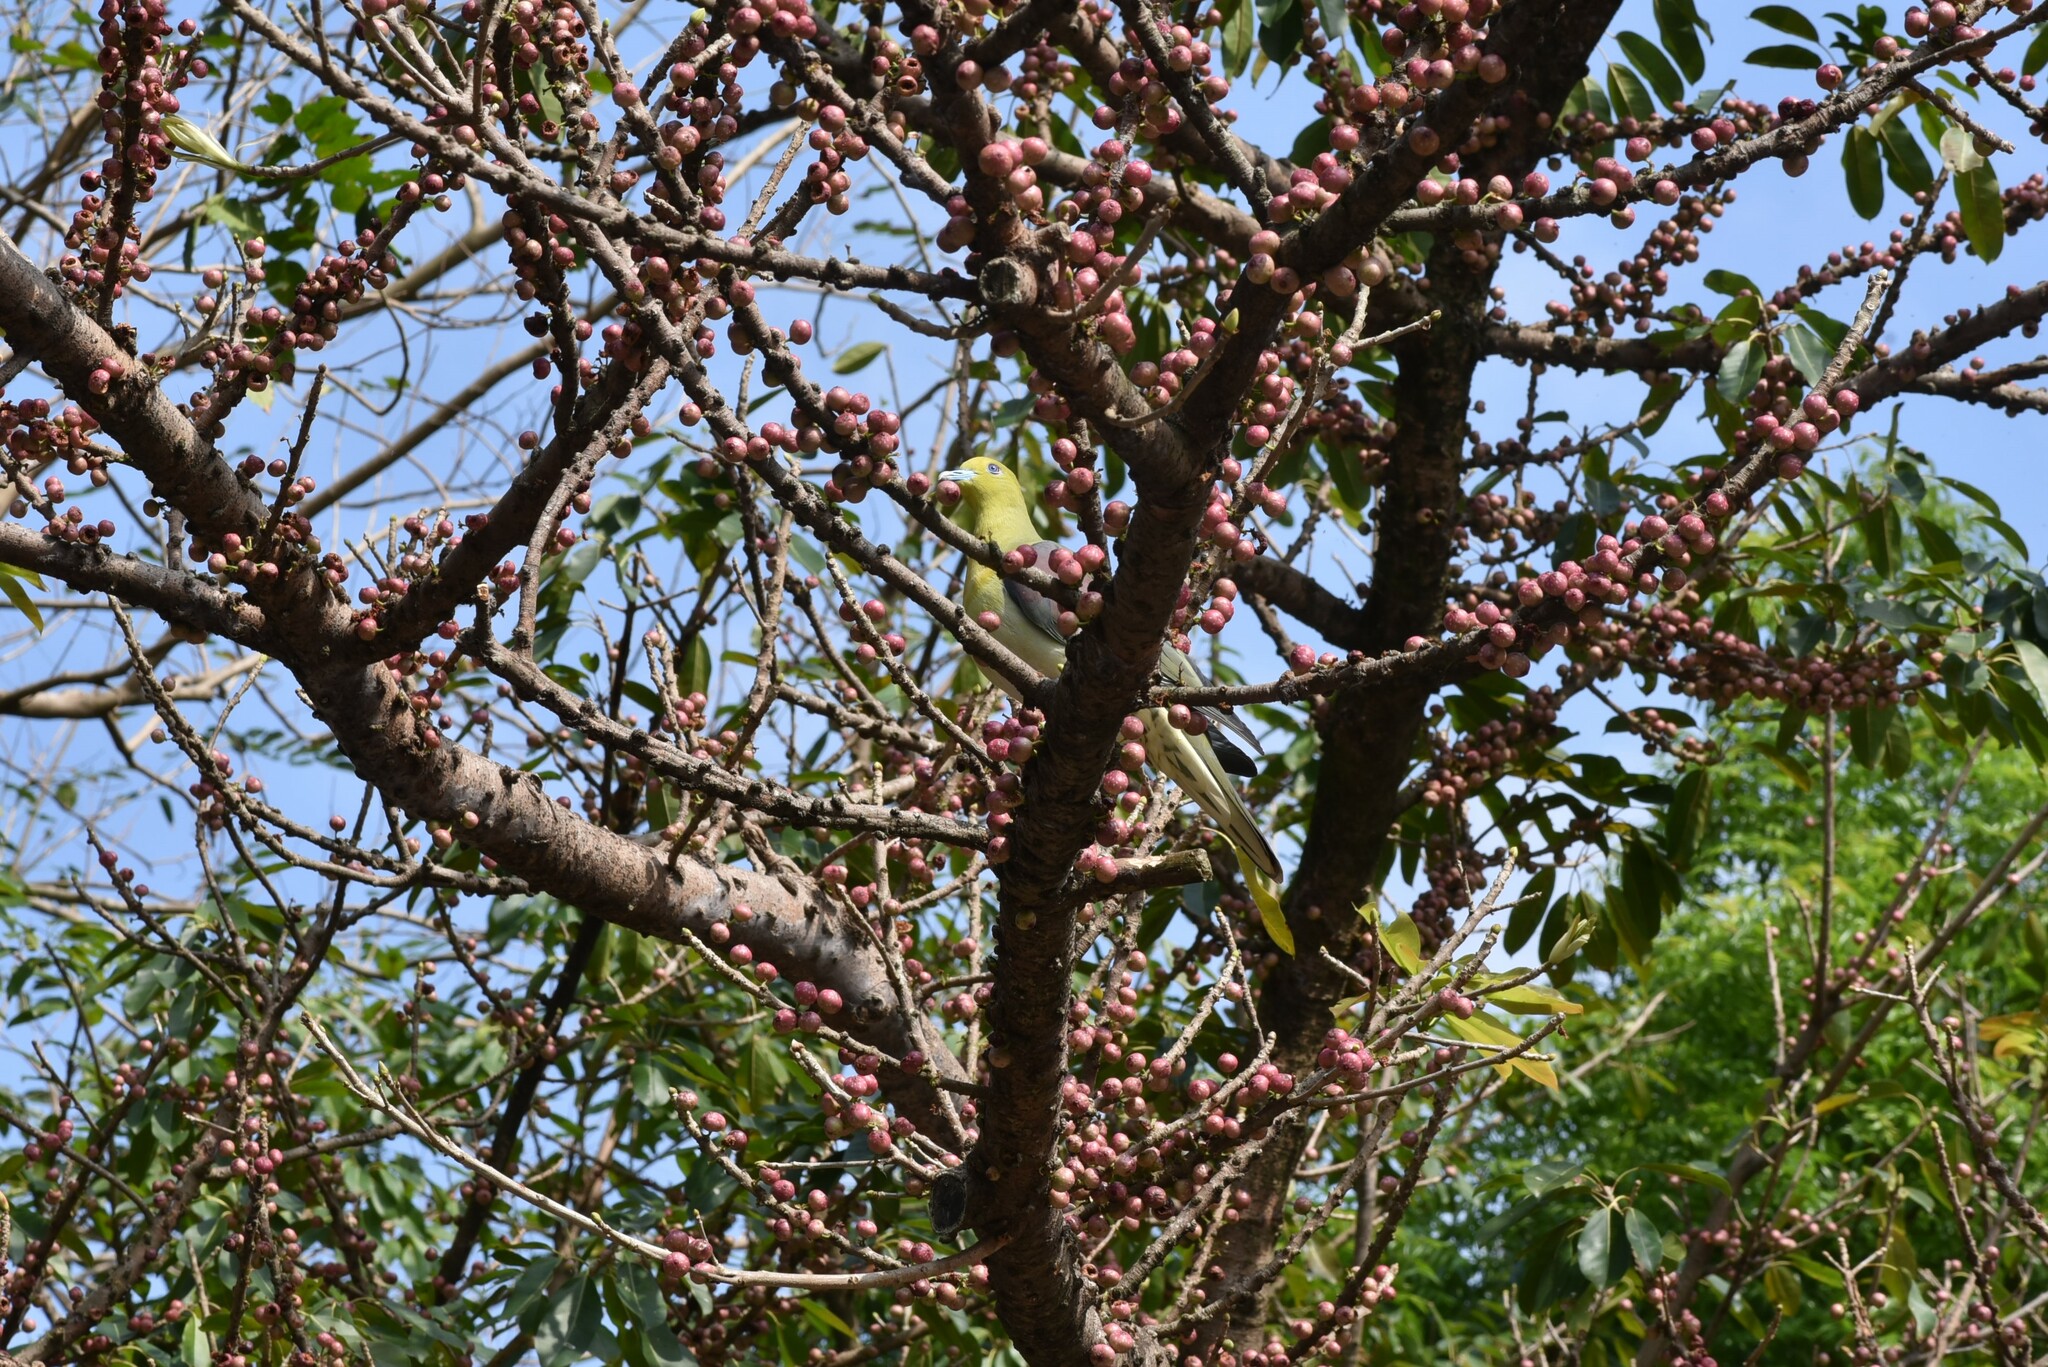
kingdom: Animalia
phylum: Chordata
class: Aves
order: Columbiformes
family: Columbidae
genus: Treron
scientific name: Treron sieboldii
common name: White-bellied green pigeon
